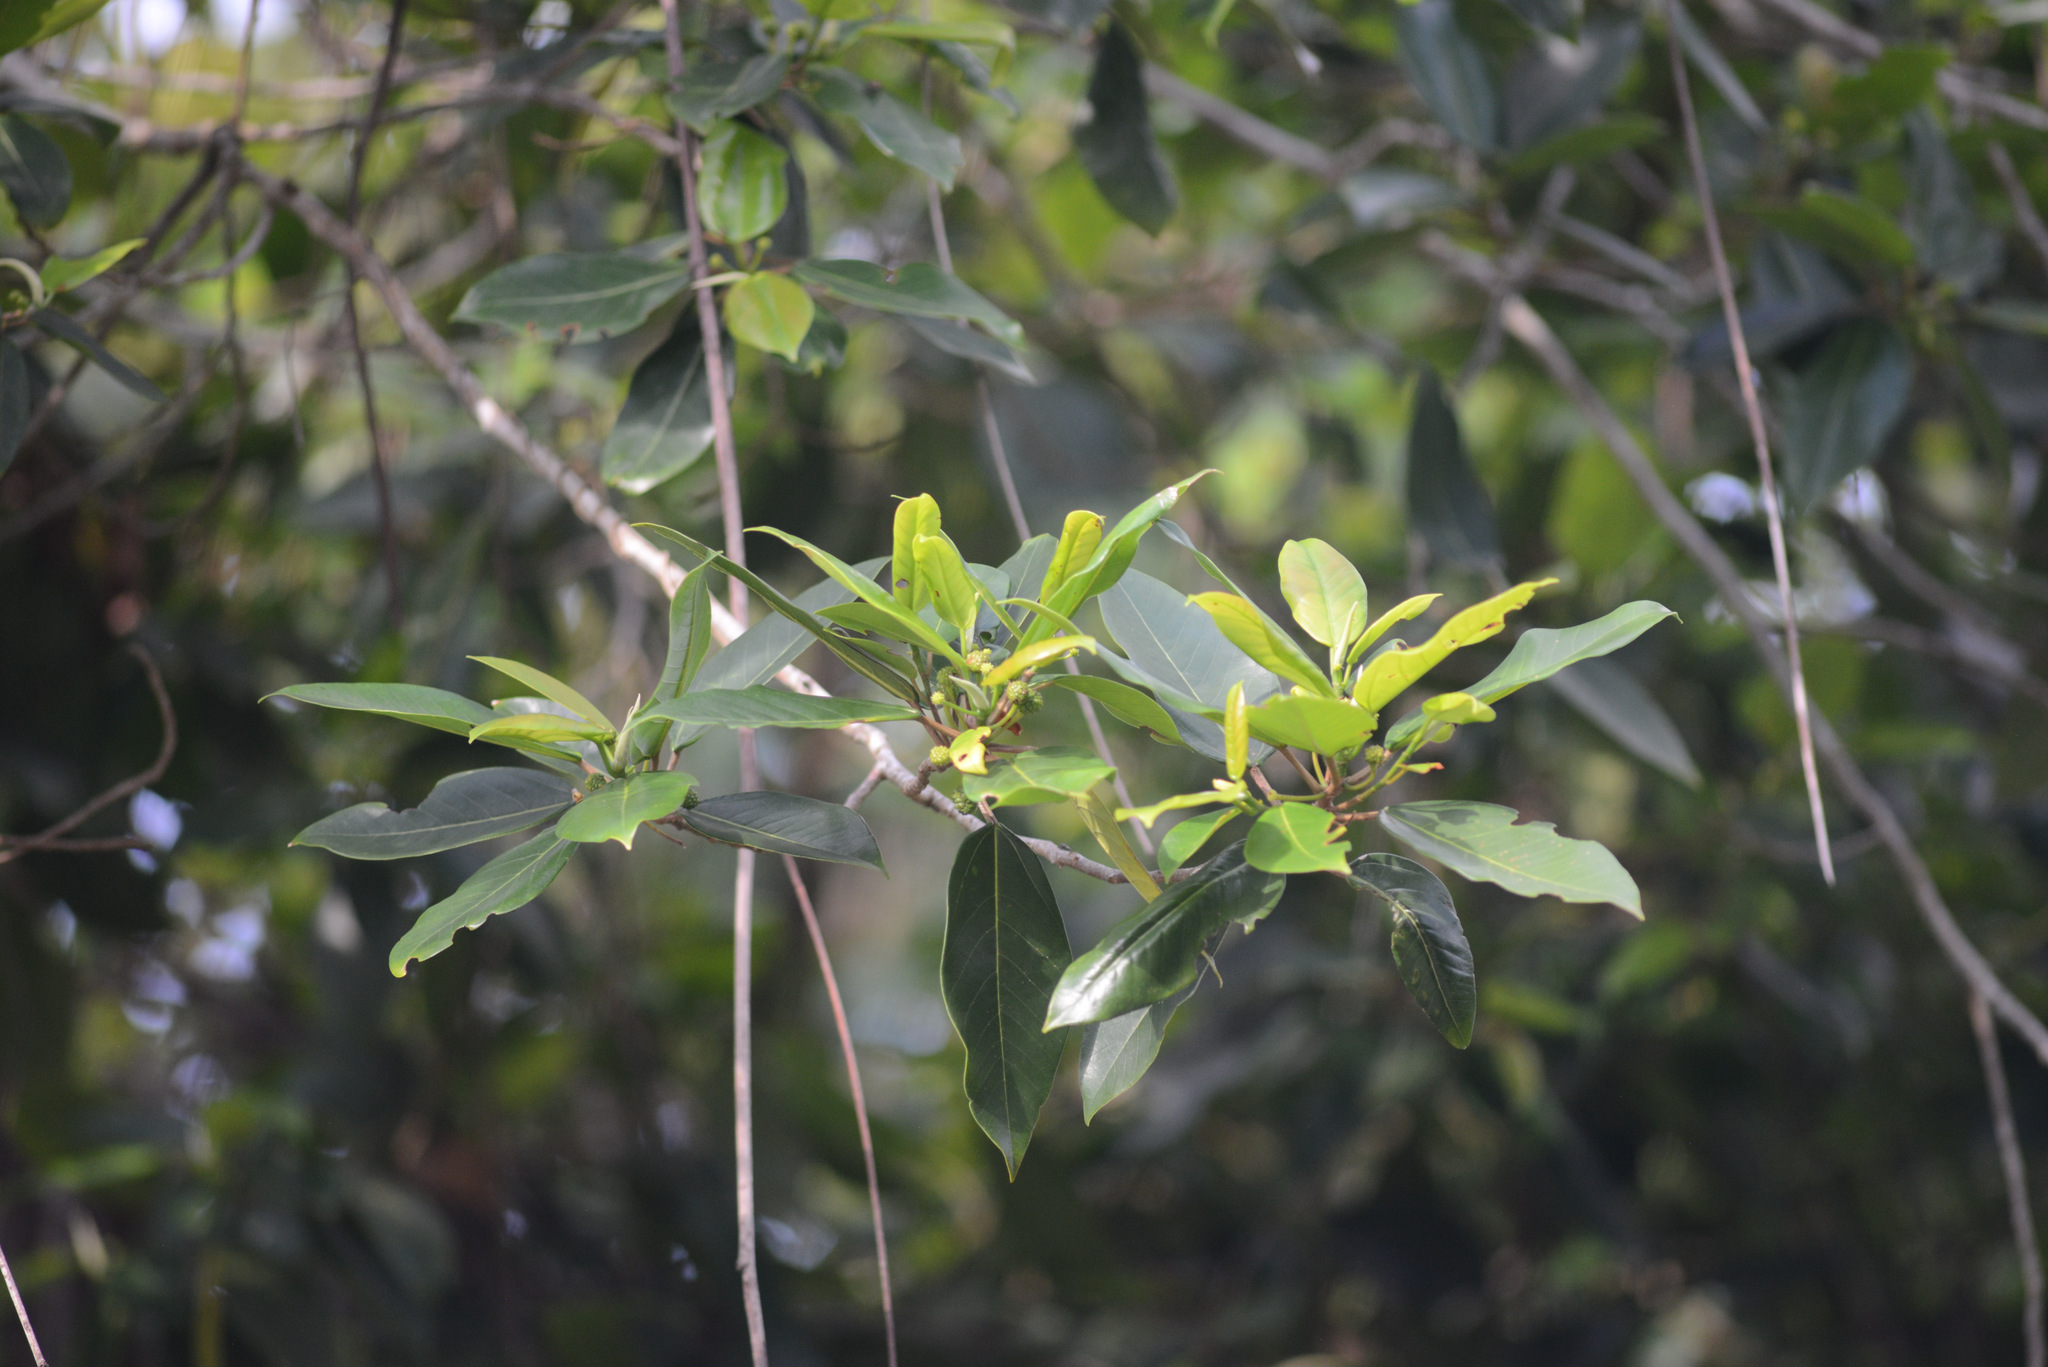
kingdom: Plantae
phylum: Tracheophyta
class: Magnoliopsida
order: Rosales
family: Urticaceae
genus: Coussapoa
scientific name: Coussapoa microcarpa
